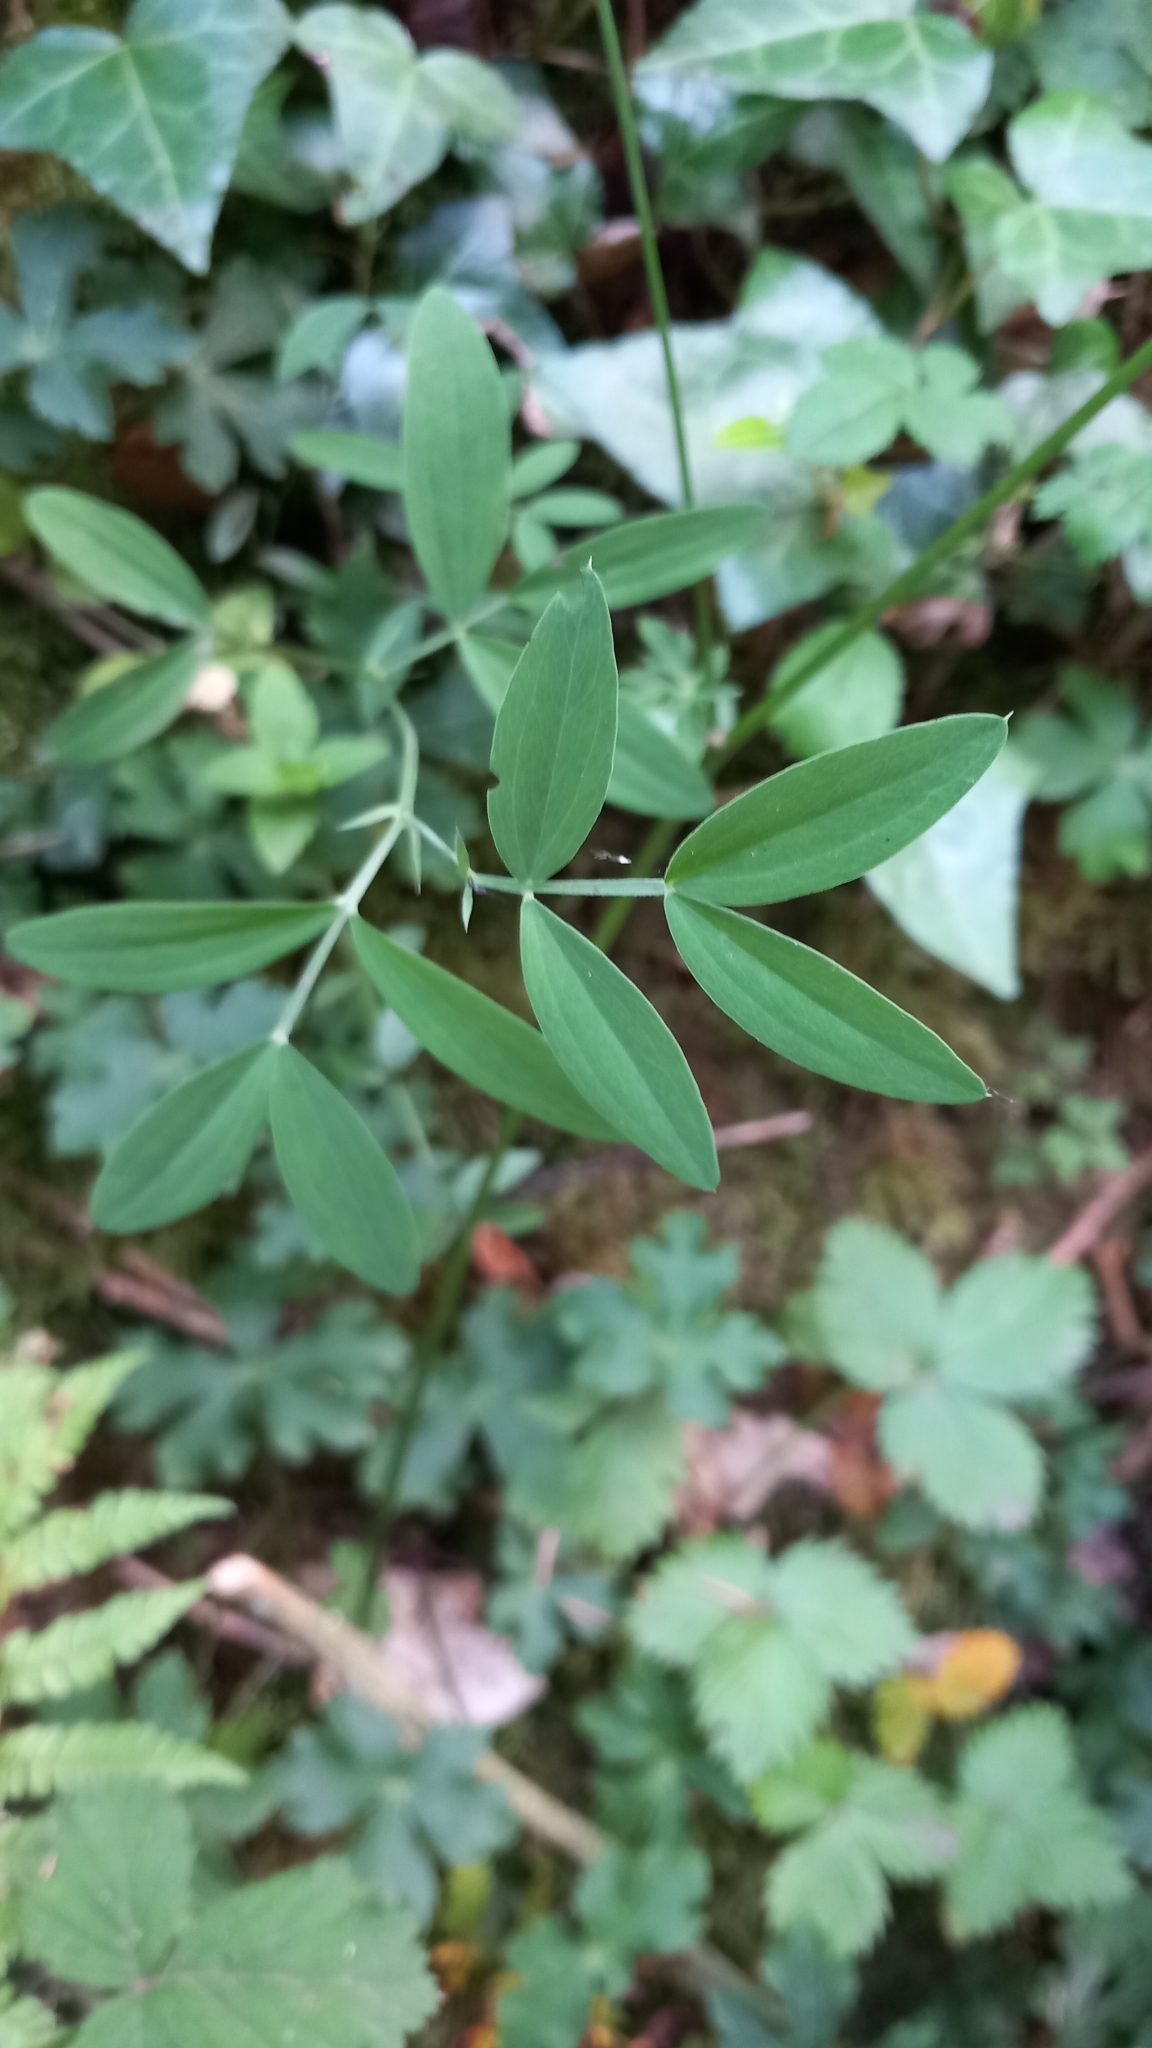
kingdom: Plantae
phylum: Tracheophyta
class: Magnoliopsida
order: Fabales
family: Fabaceae
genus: Lathyrus
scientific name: Lathyrus linifolius
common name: Bitter-vetch
